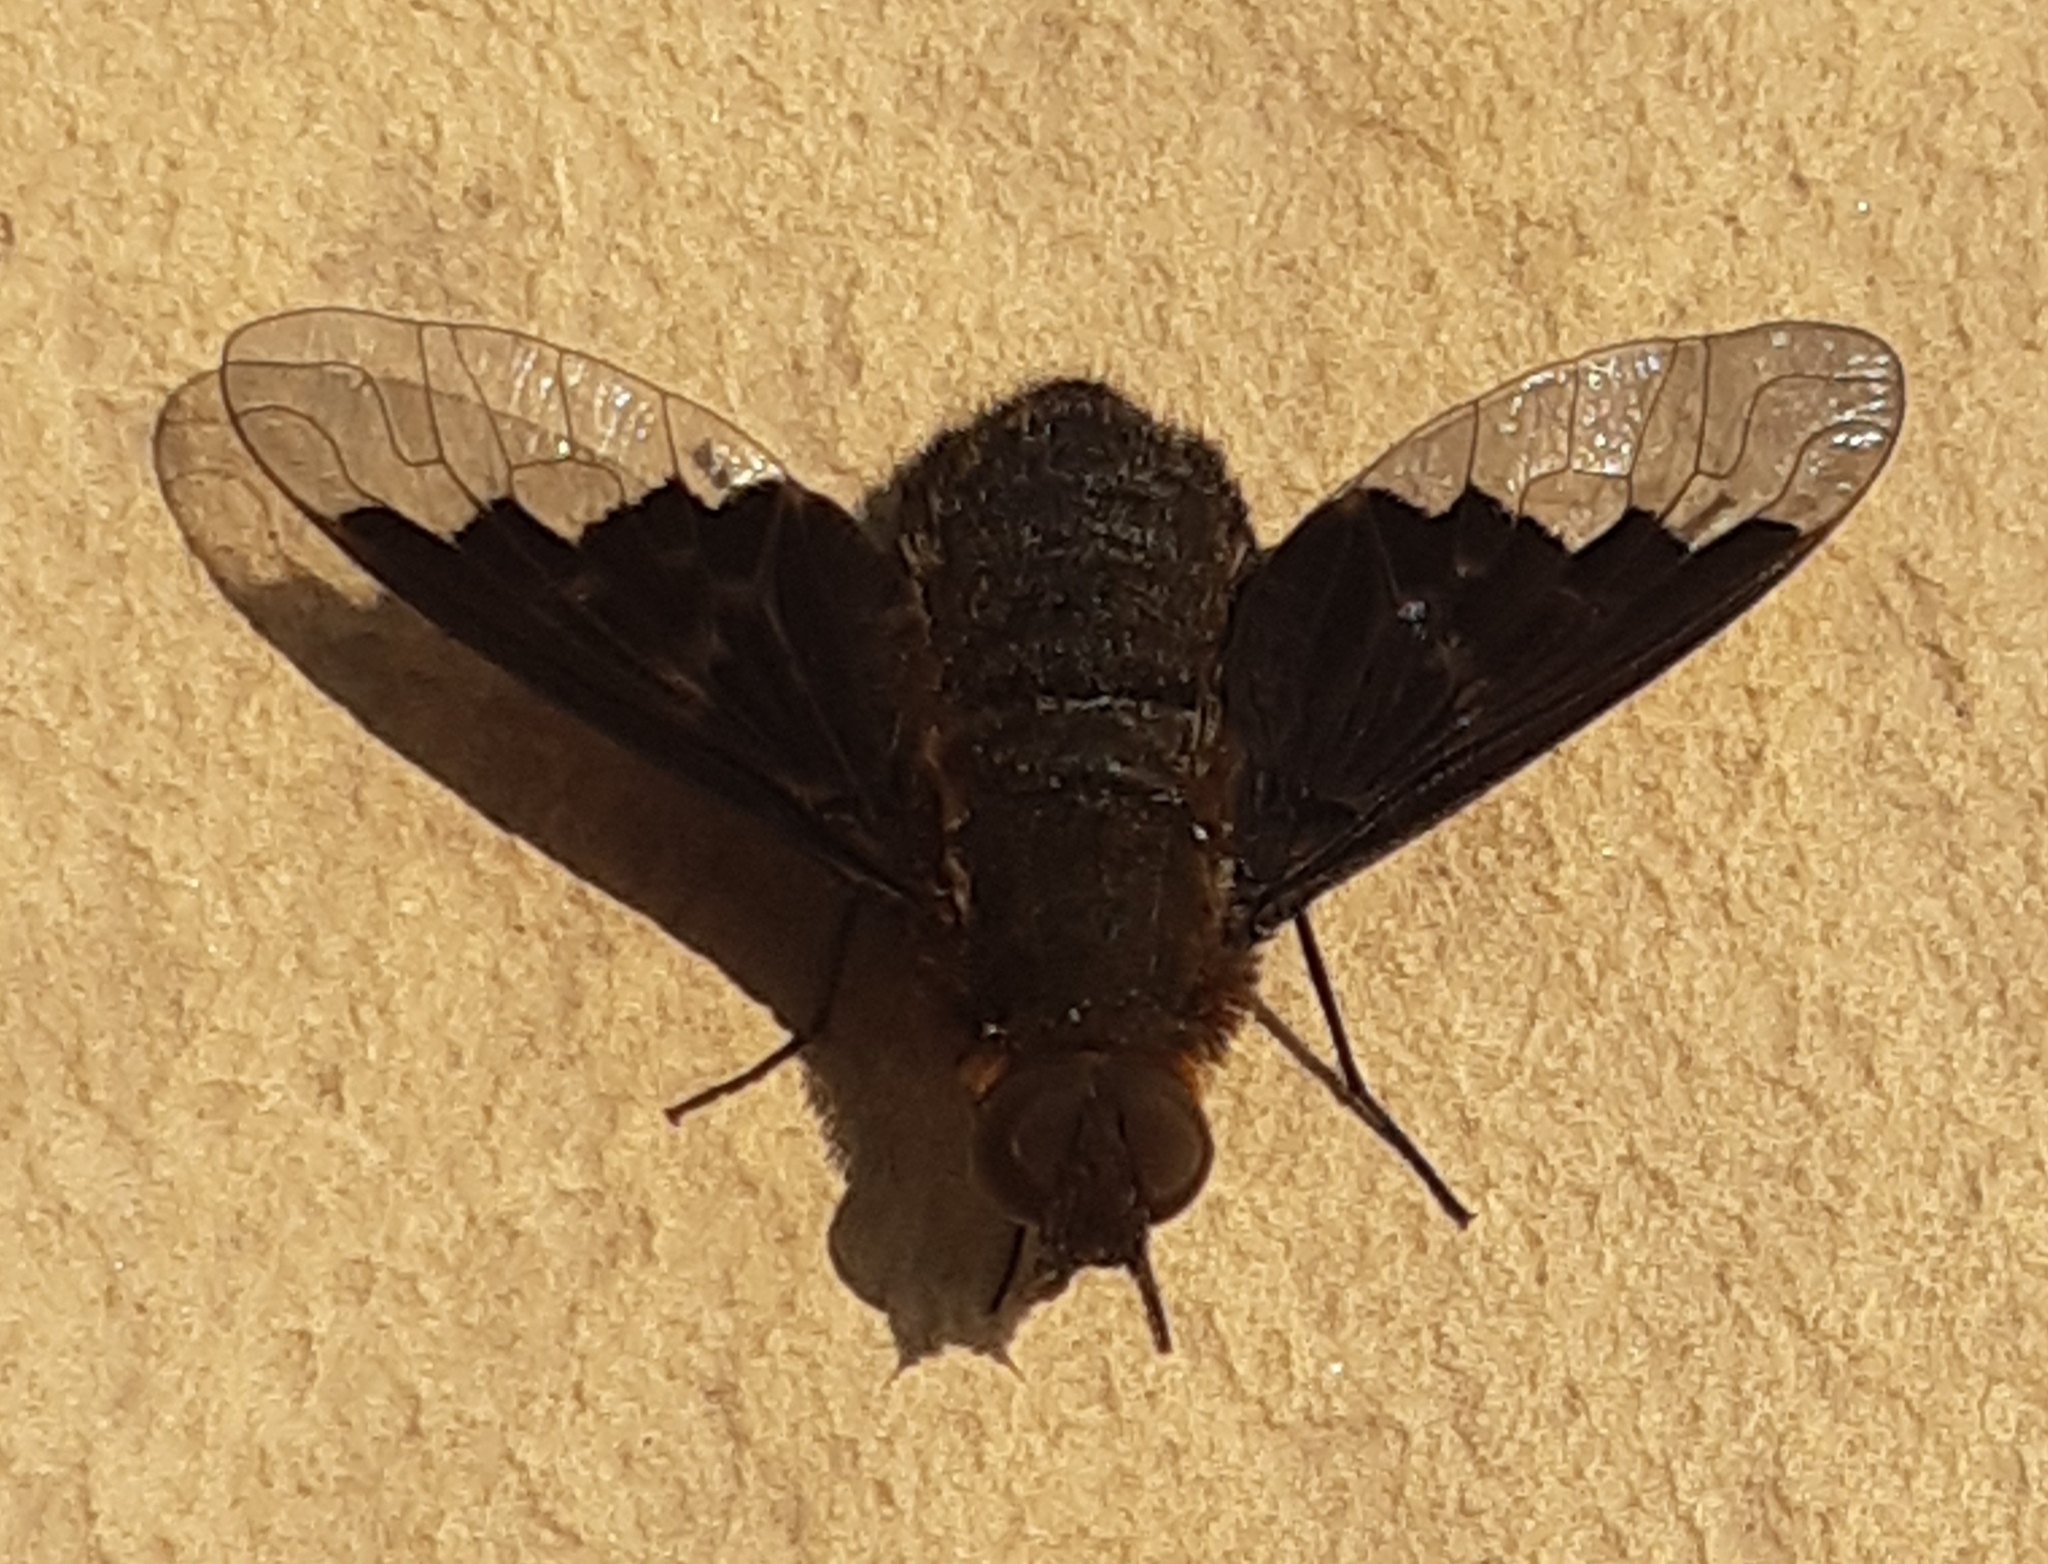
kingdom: Animalia
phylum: Arthropoda
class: Insecta
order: Diptera
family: Bombyliidae
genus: Hemipenthes
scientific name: Hemipenthes morio
